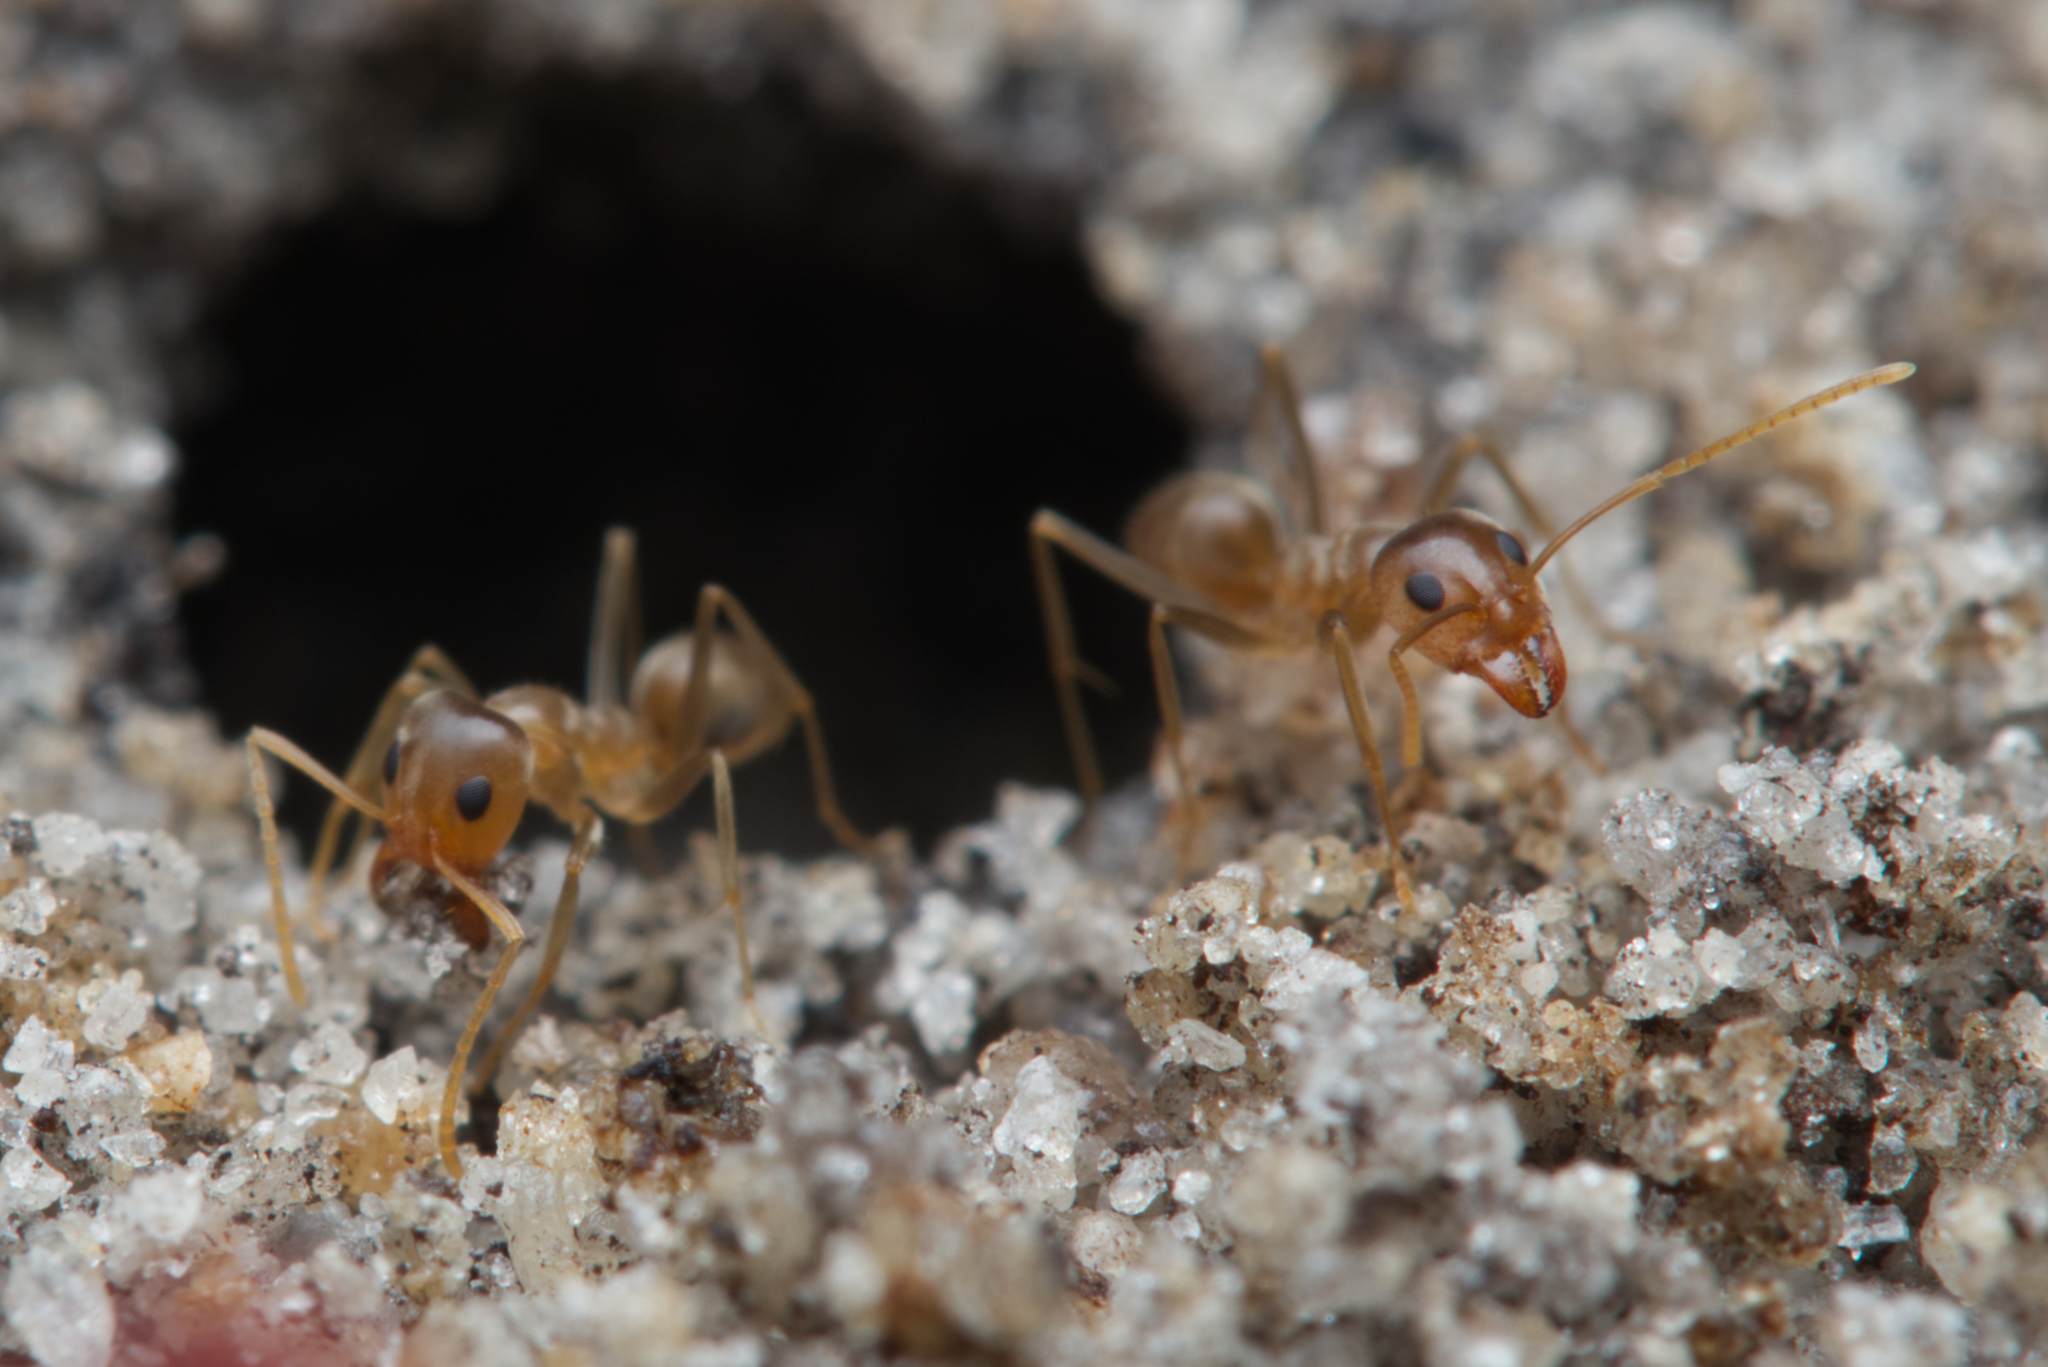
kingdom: Animalia
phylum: Arthropoda
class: Insecta
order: Hymenoptera
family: Formicidae
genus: Iridomyrmex
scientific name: Iridomyrmex pallidus
